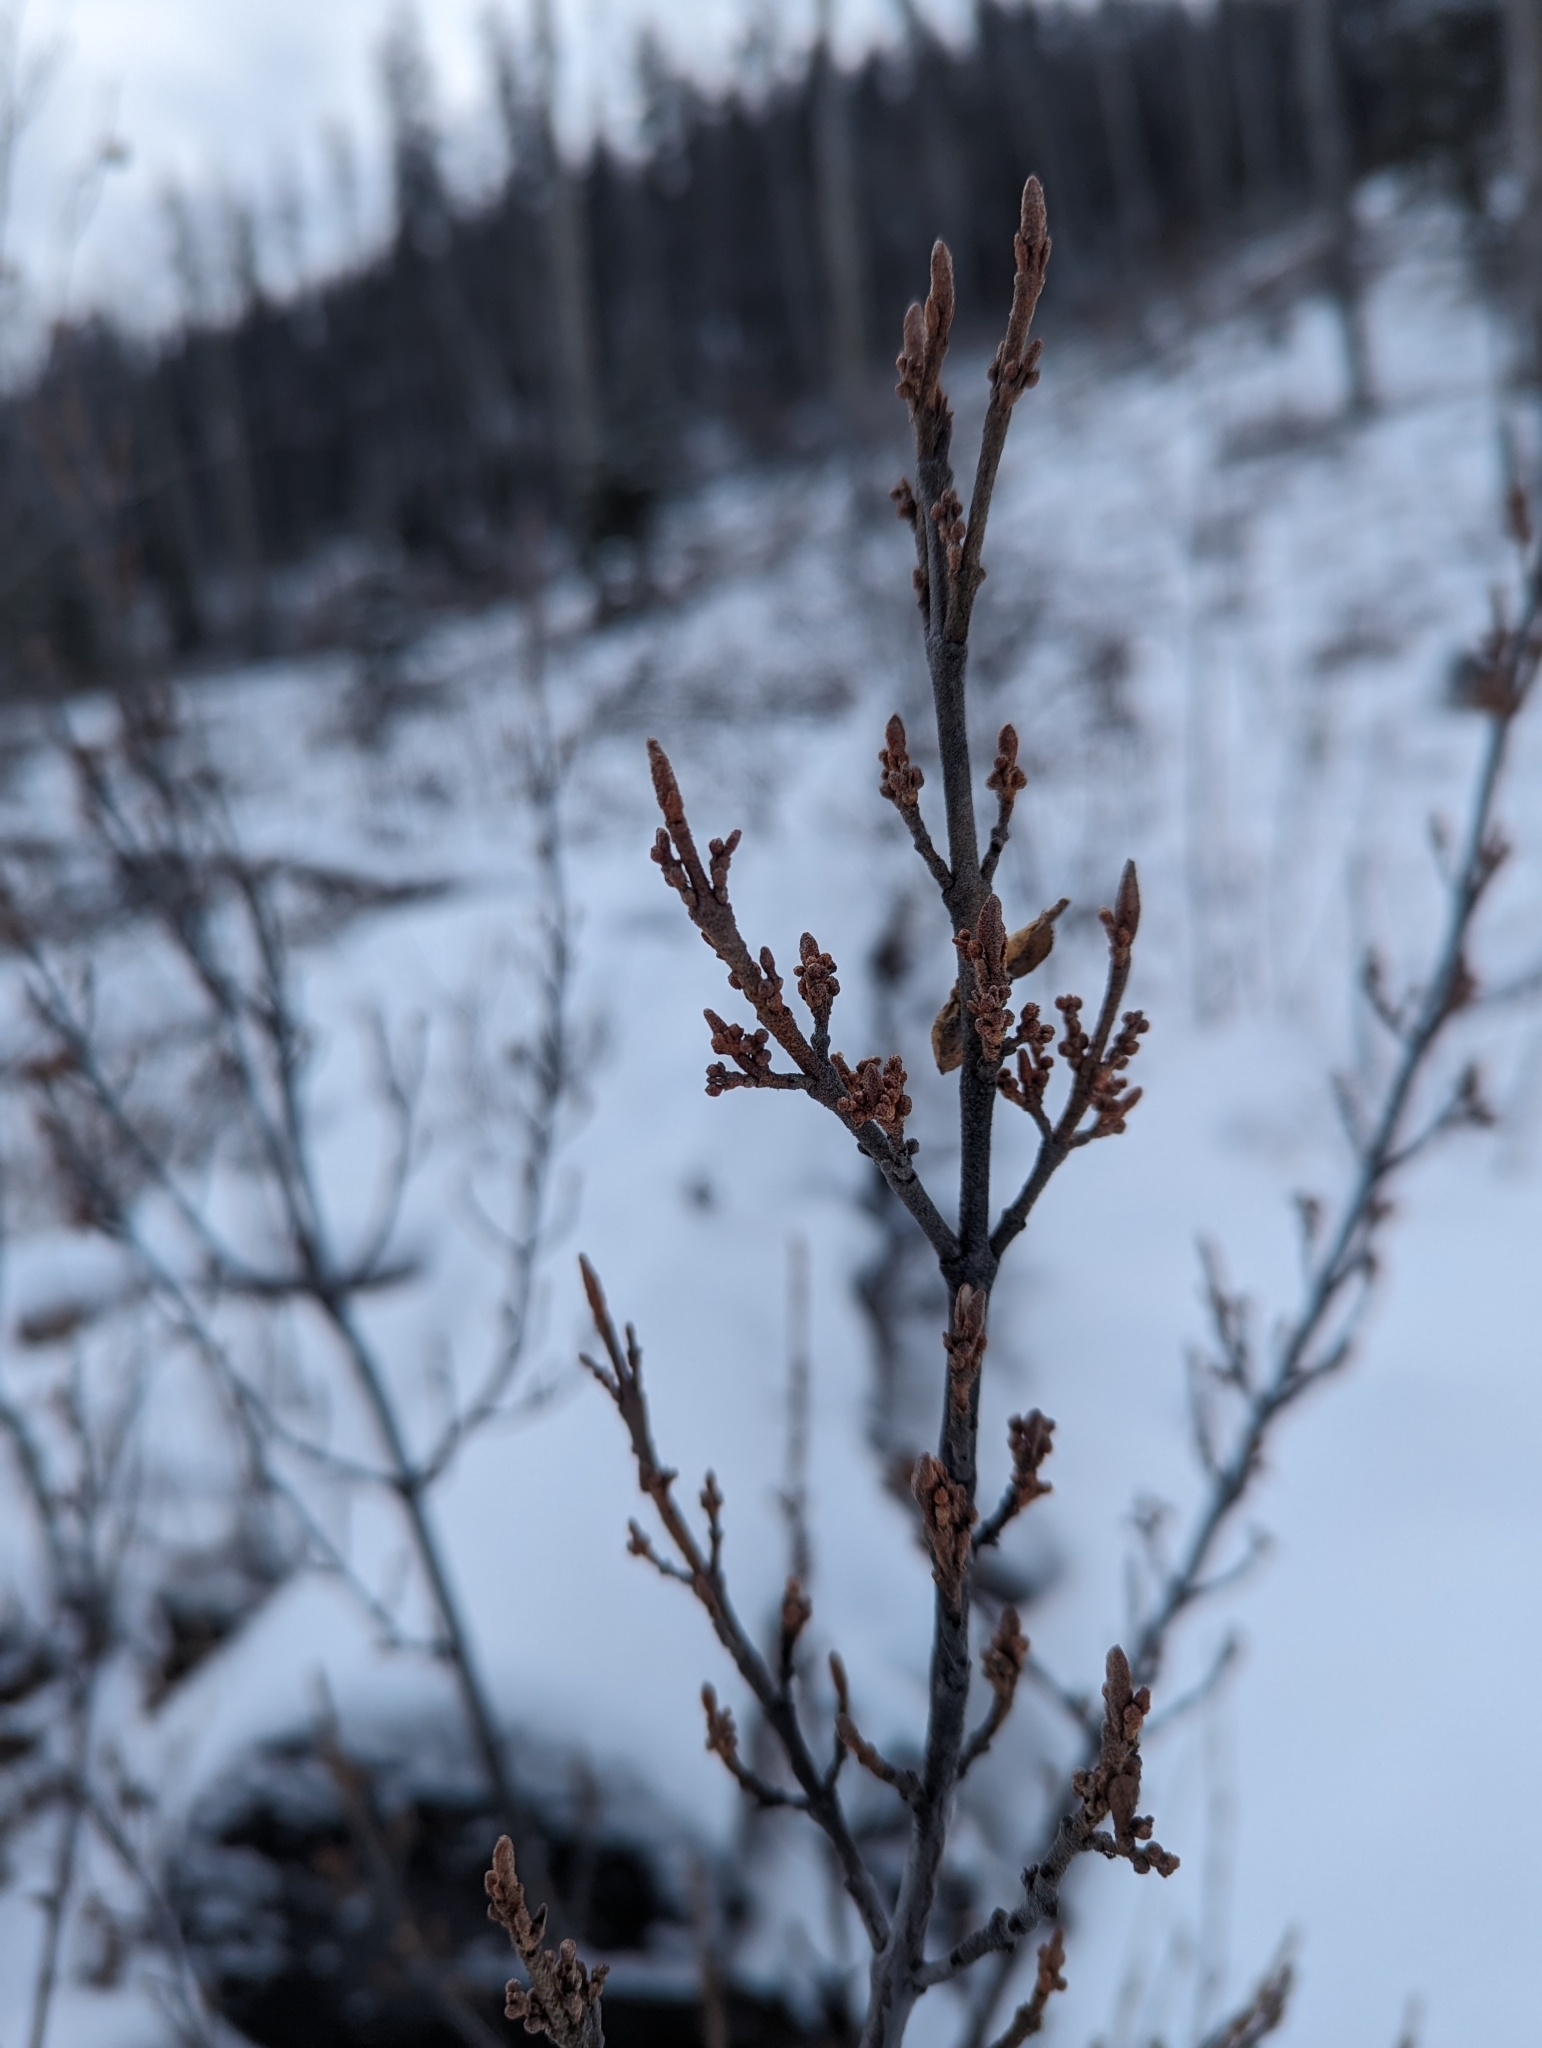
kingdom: Plantae
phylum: Tracheophyta
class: Magnoliopsida
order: Rosales
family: Elaeagnaceae
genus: Shepherdia
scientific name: Shepherdia canadensis
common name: Soapberry
